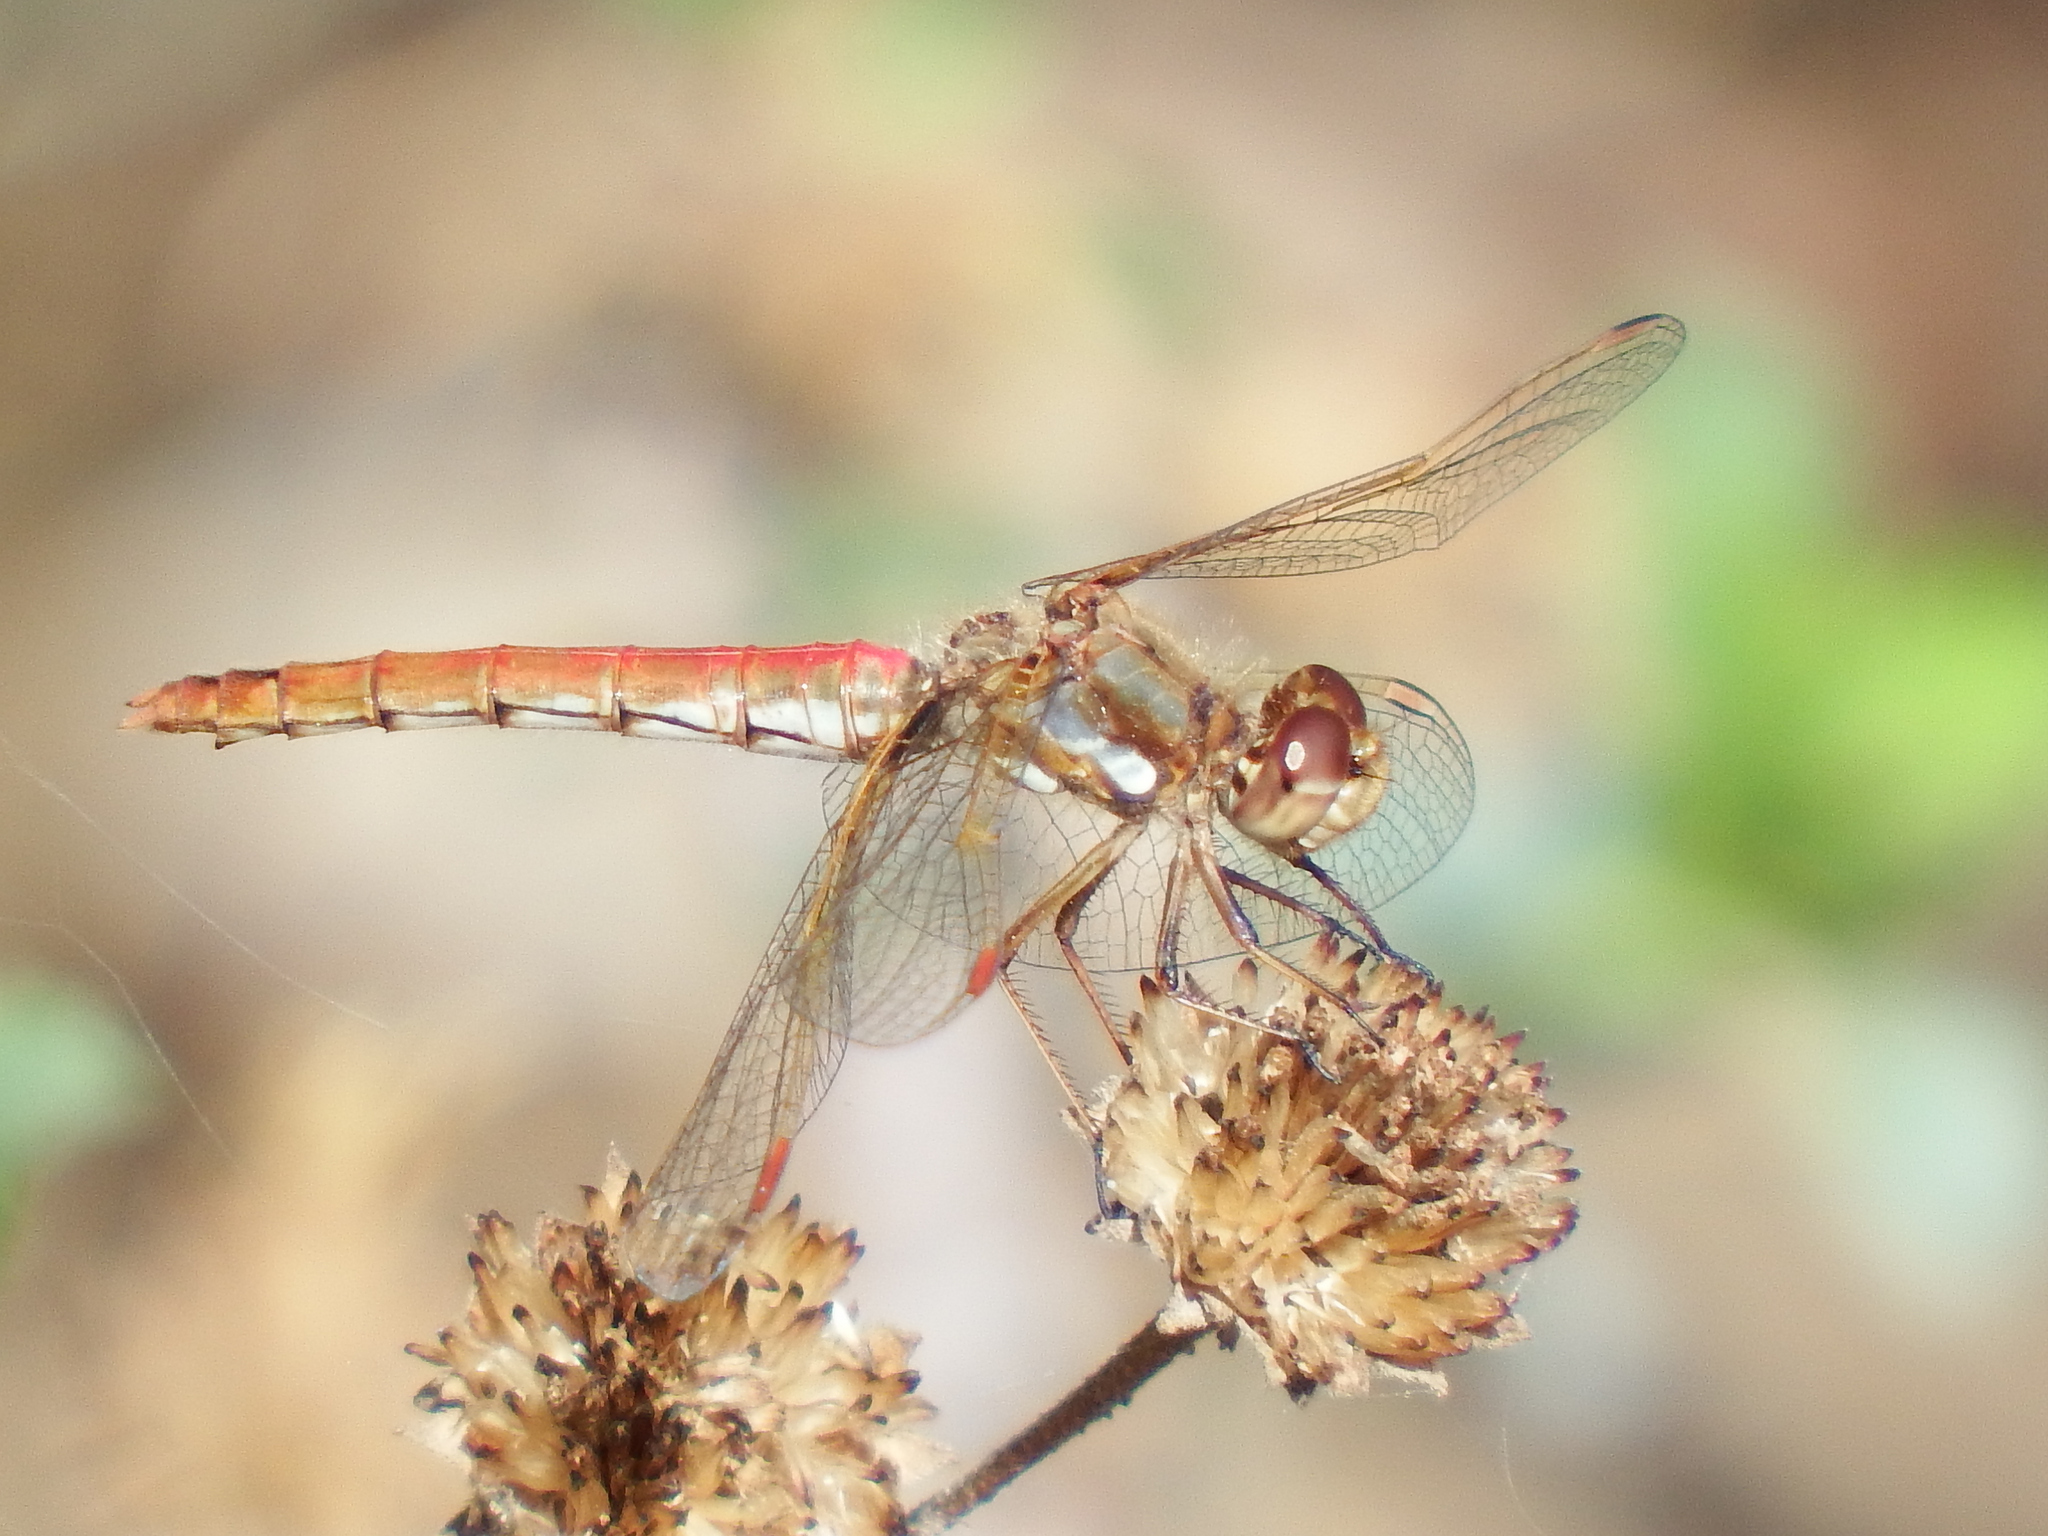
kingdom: Animalia
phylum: Arthropoda
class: Insecta
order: Odonata
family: Libellulidae
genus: Sympetrum
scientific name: Sympetrum gilvum
